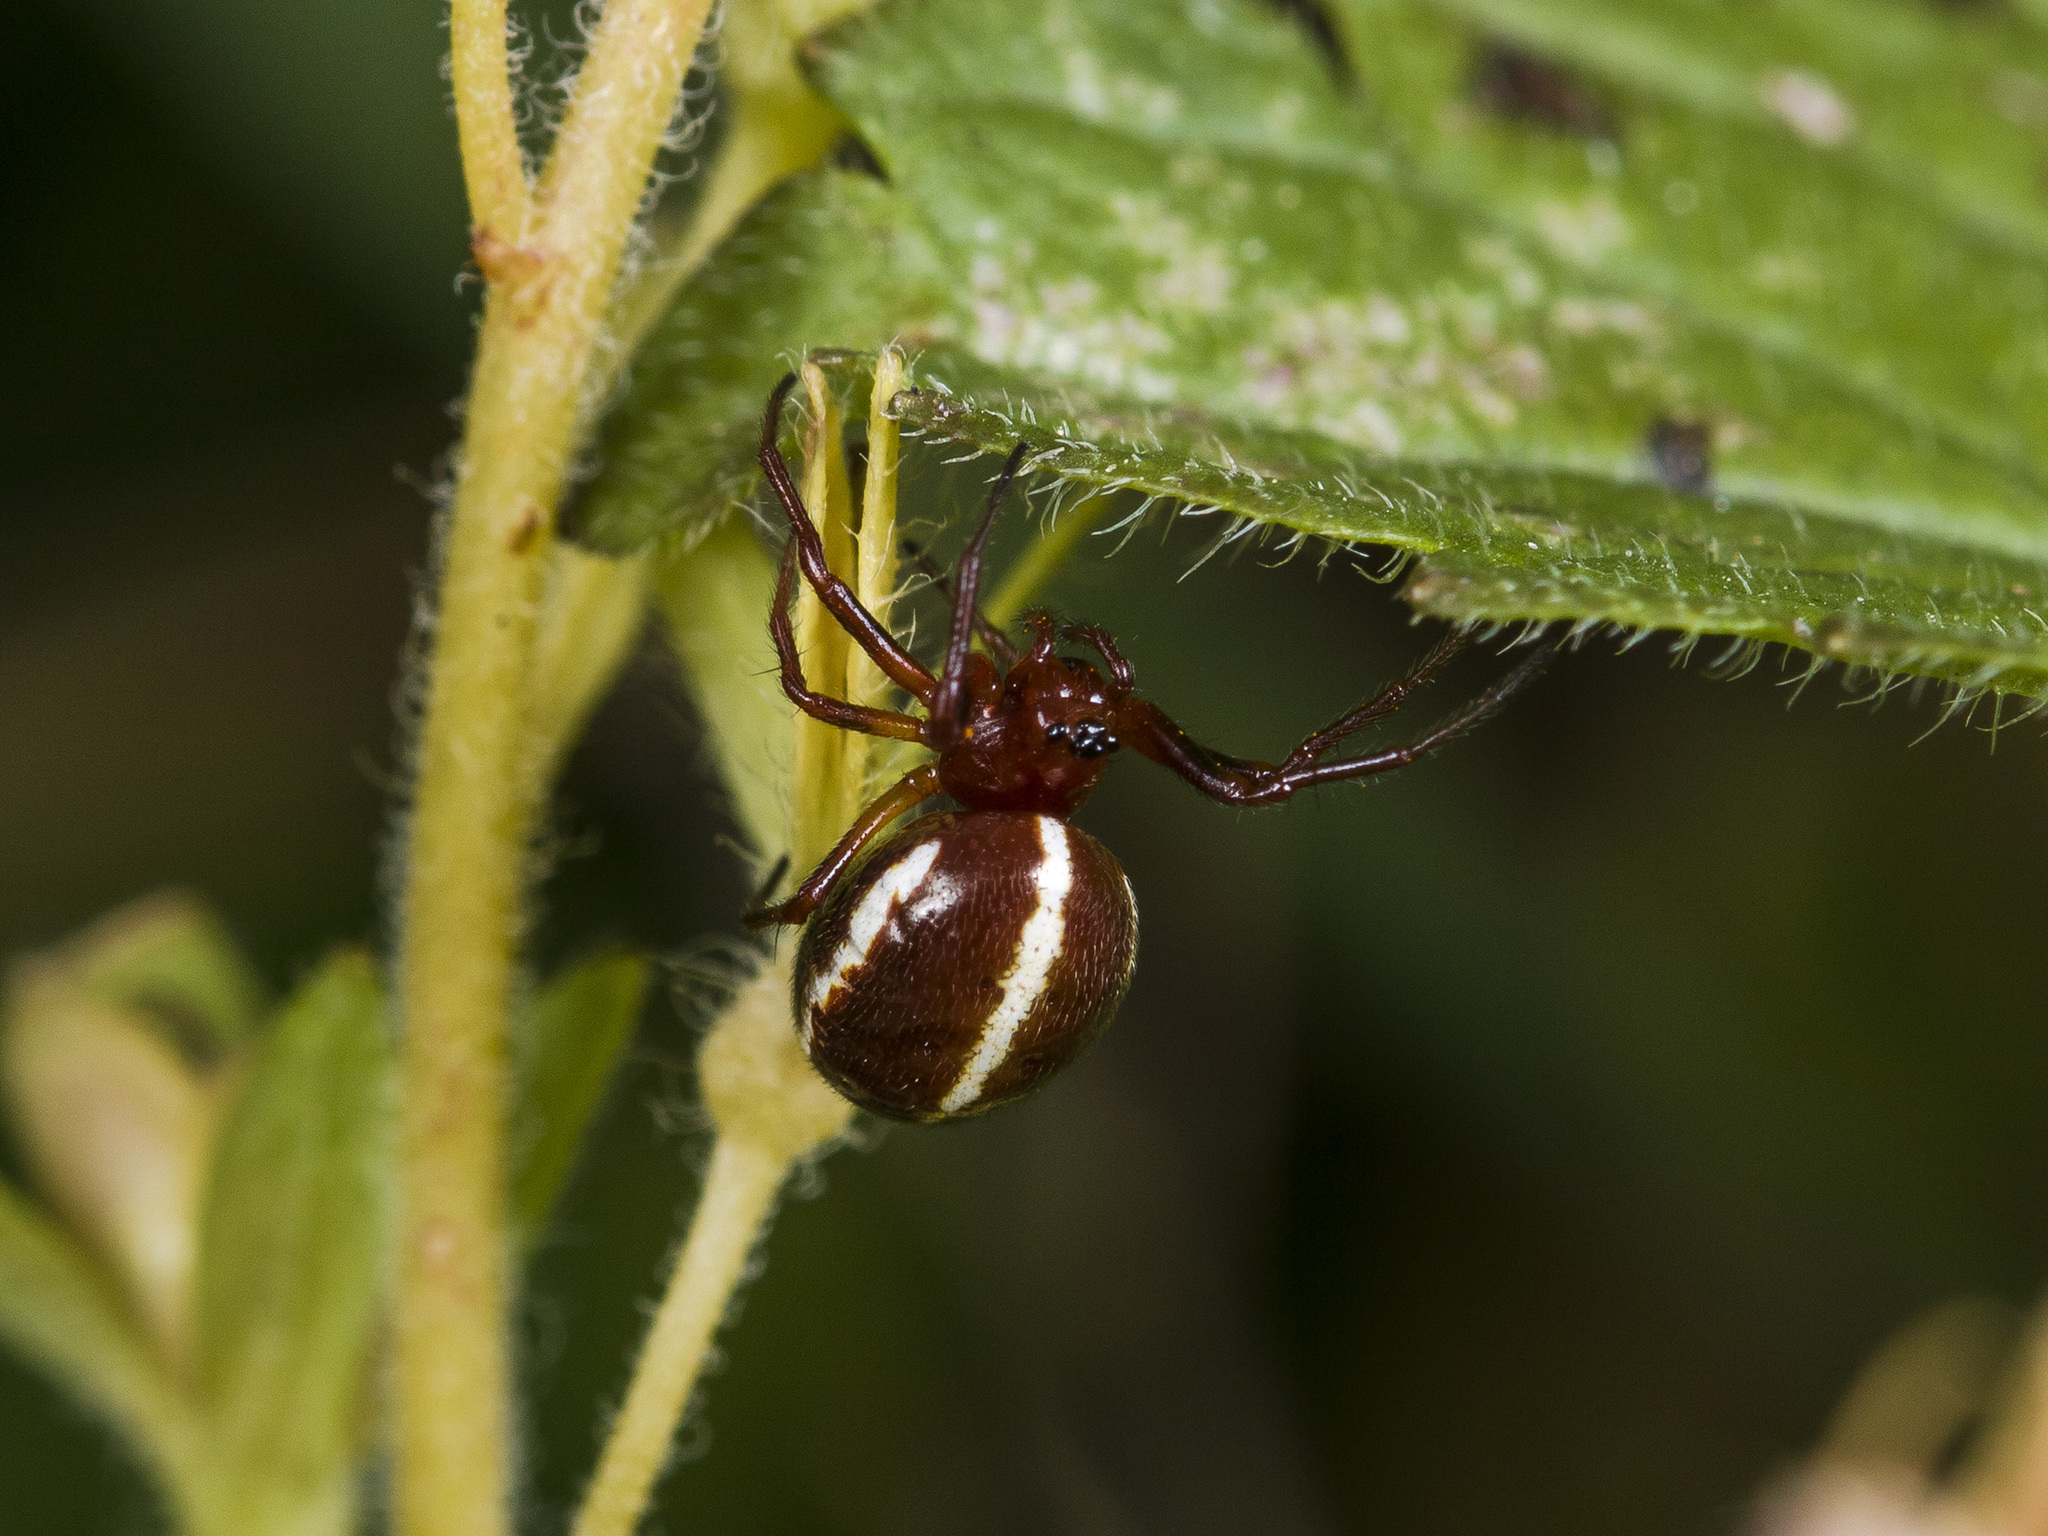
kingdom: Animalia
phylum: Arthropoda
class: Arachnida
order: Araneae
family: Araneidae
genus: Hypsosinga
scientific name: Hypsosinga sanguinea
